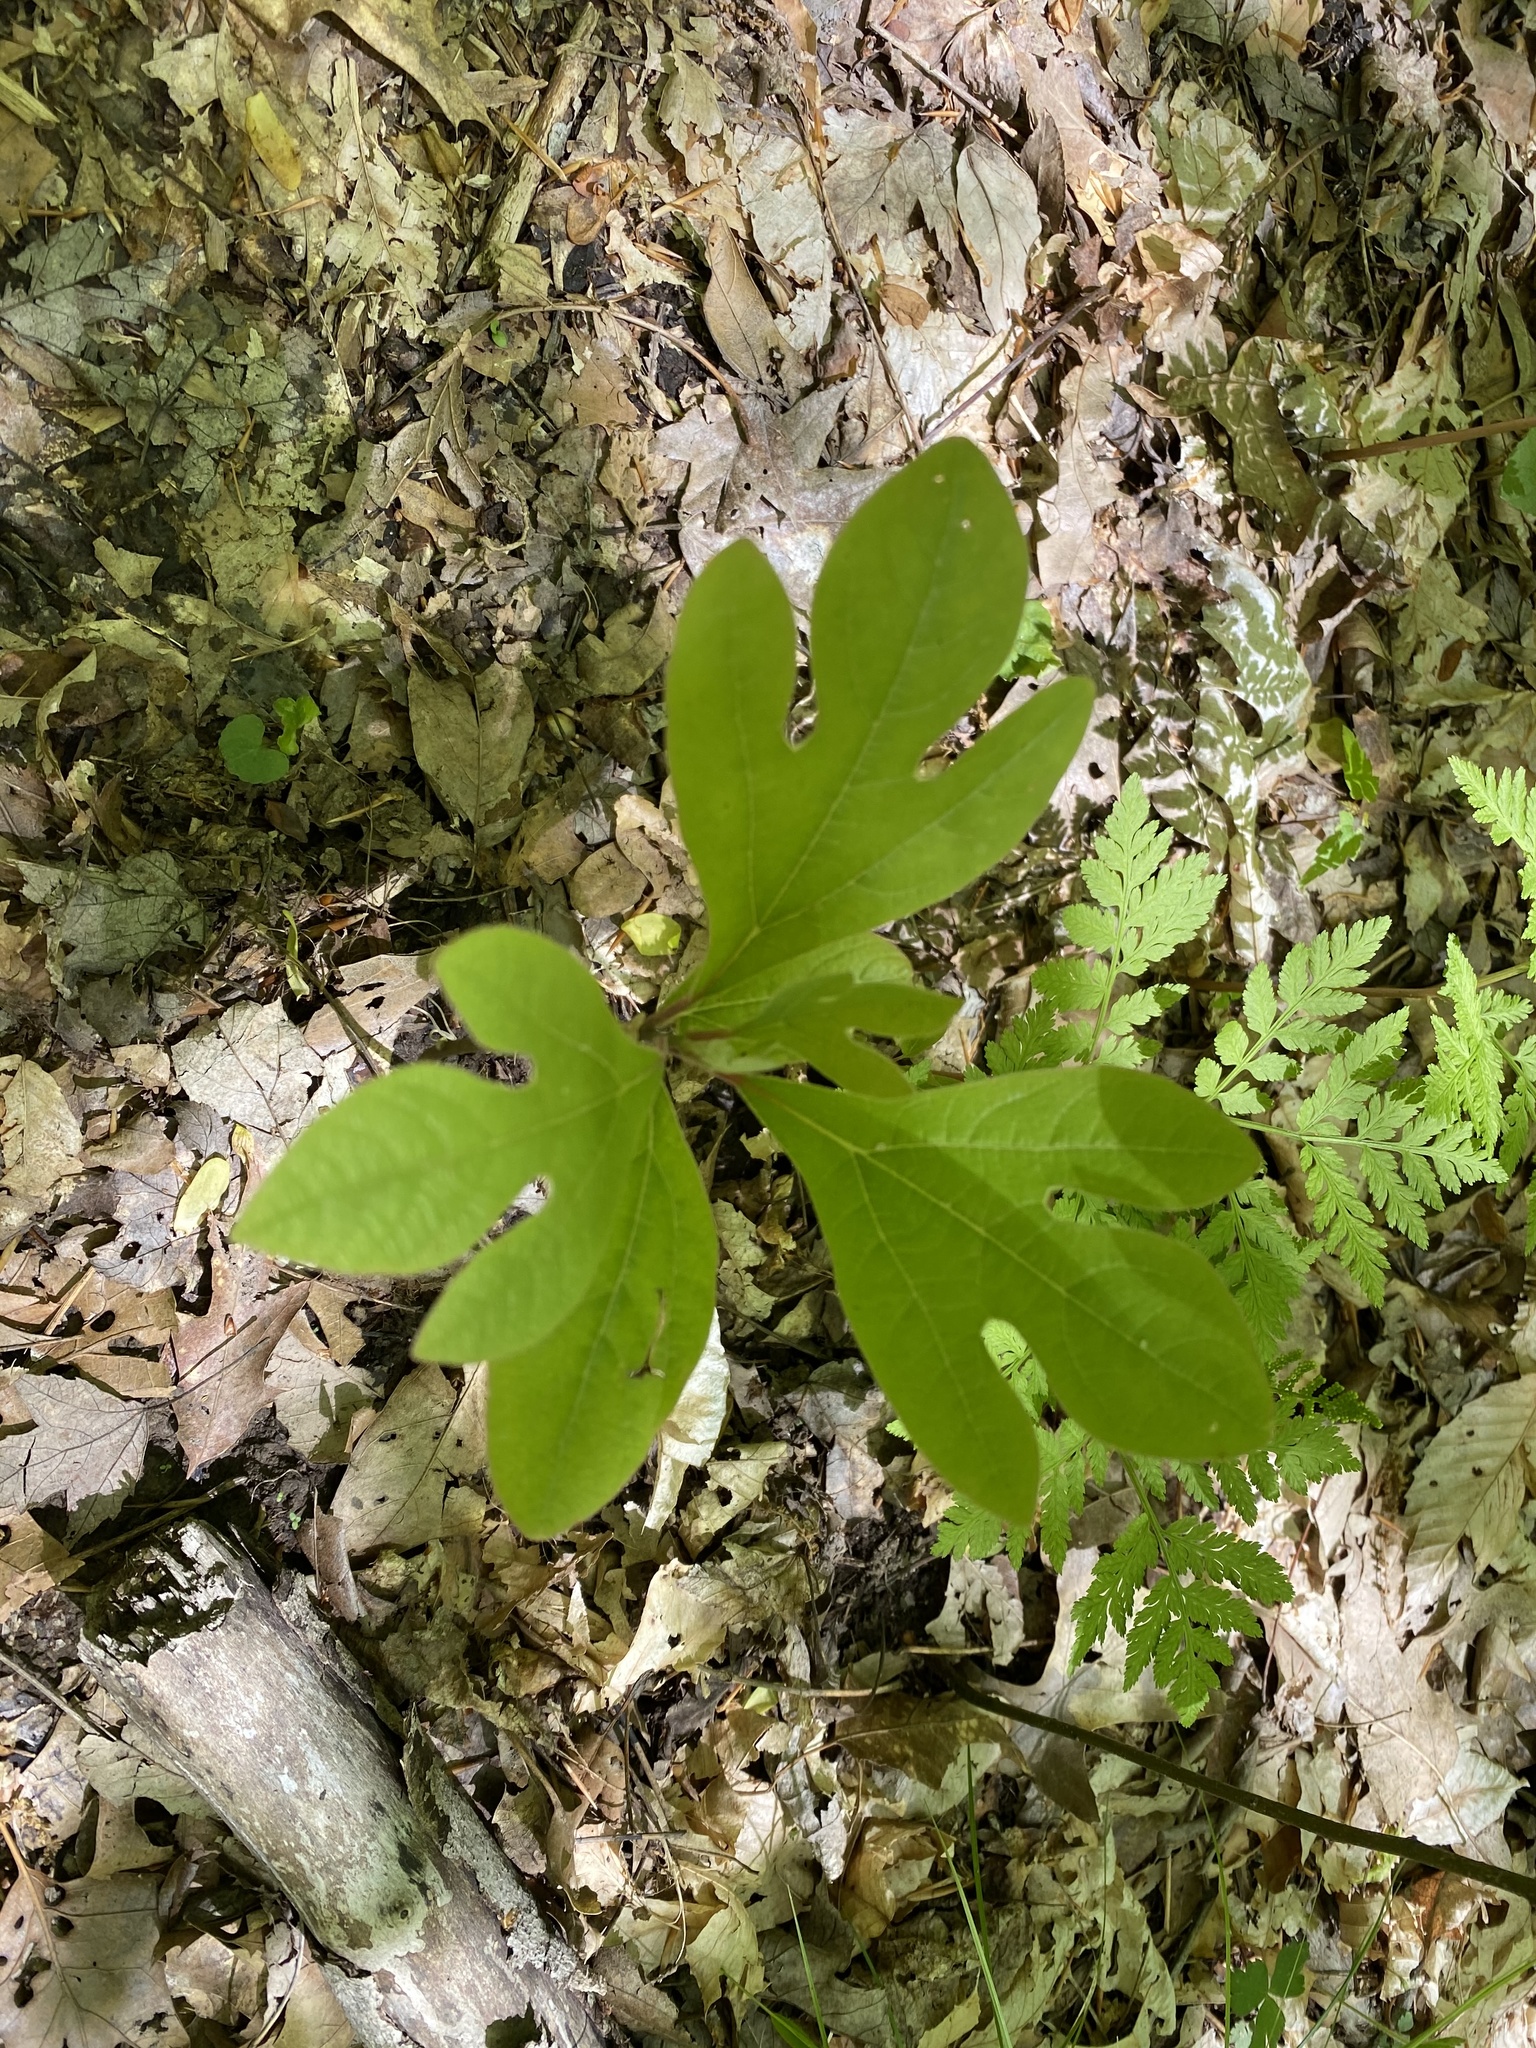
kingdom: Plantae
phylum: Tracheophyta
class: Magnoliopsida
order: Laurales
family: Lauraceae
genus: Sassafras
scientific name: Sassafras albidum
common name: Sassafras
